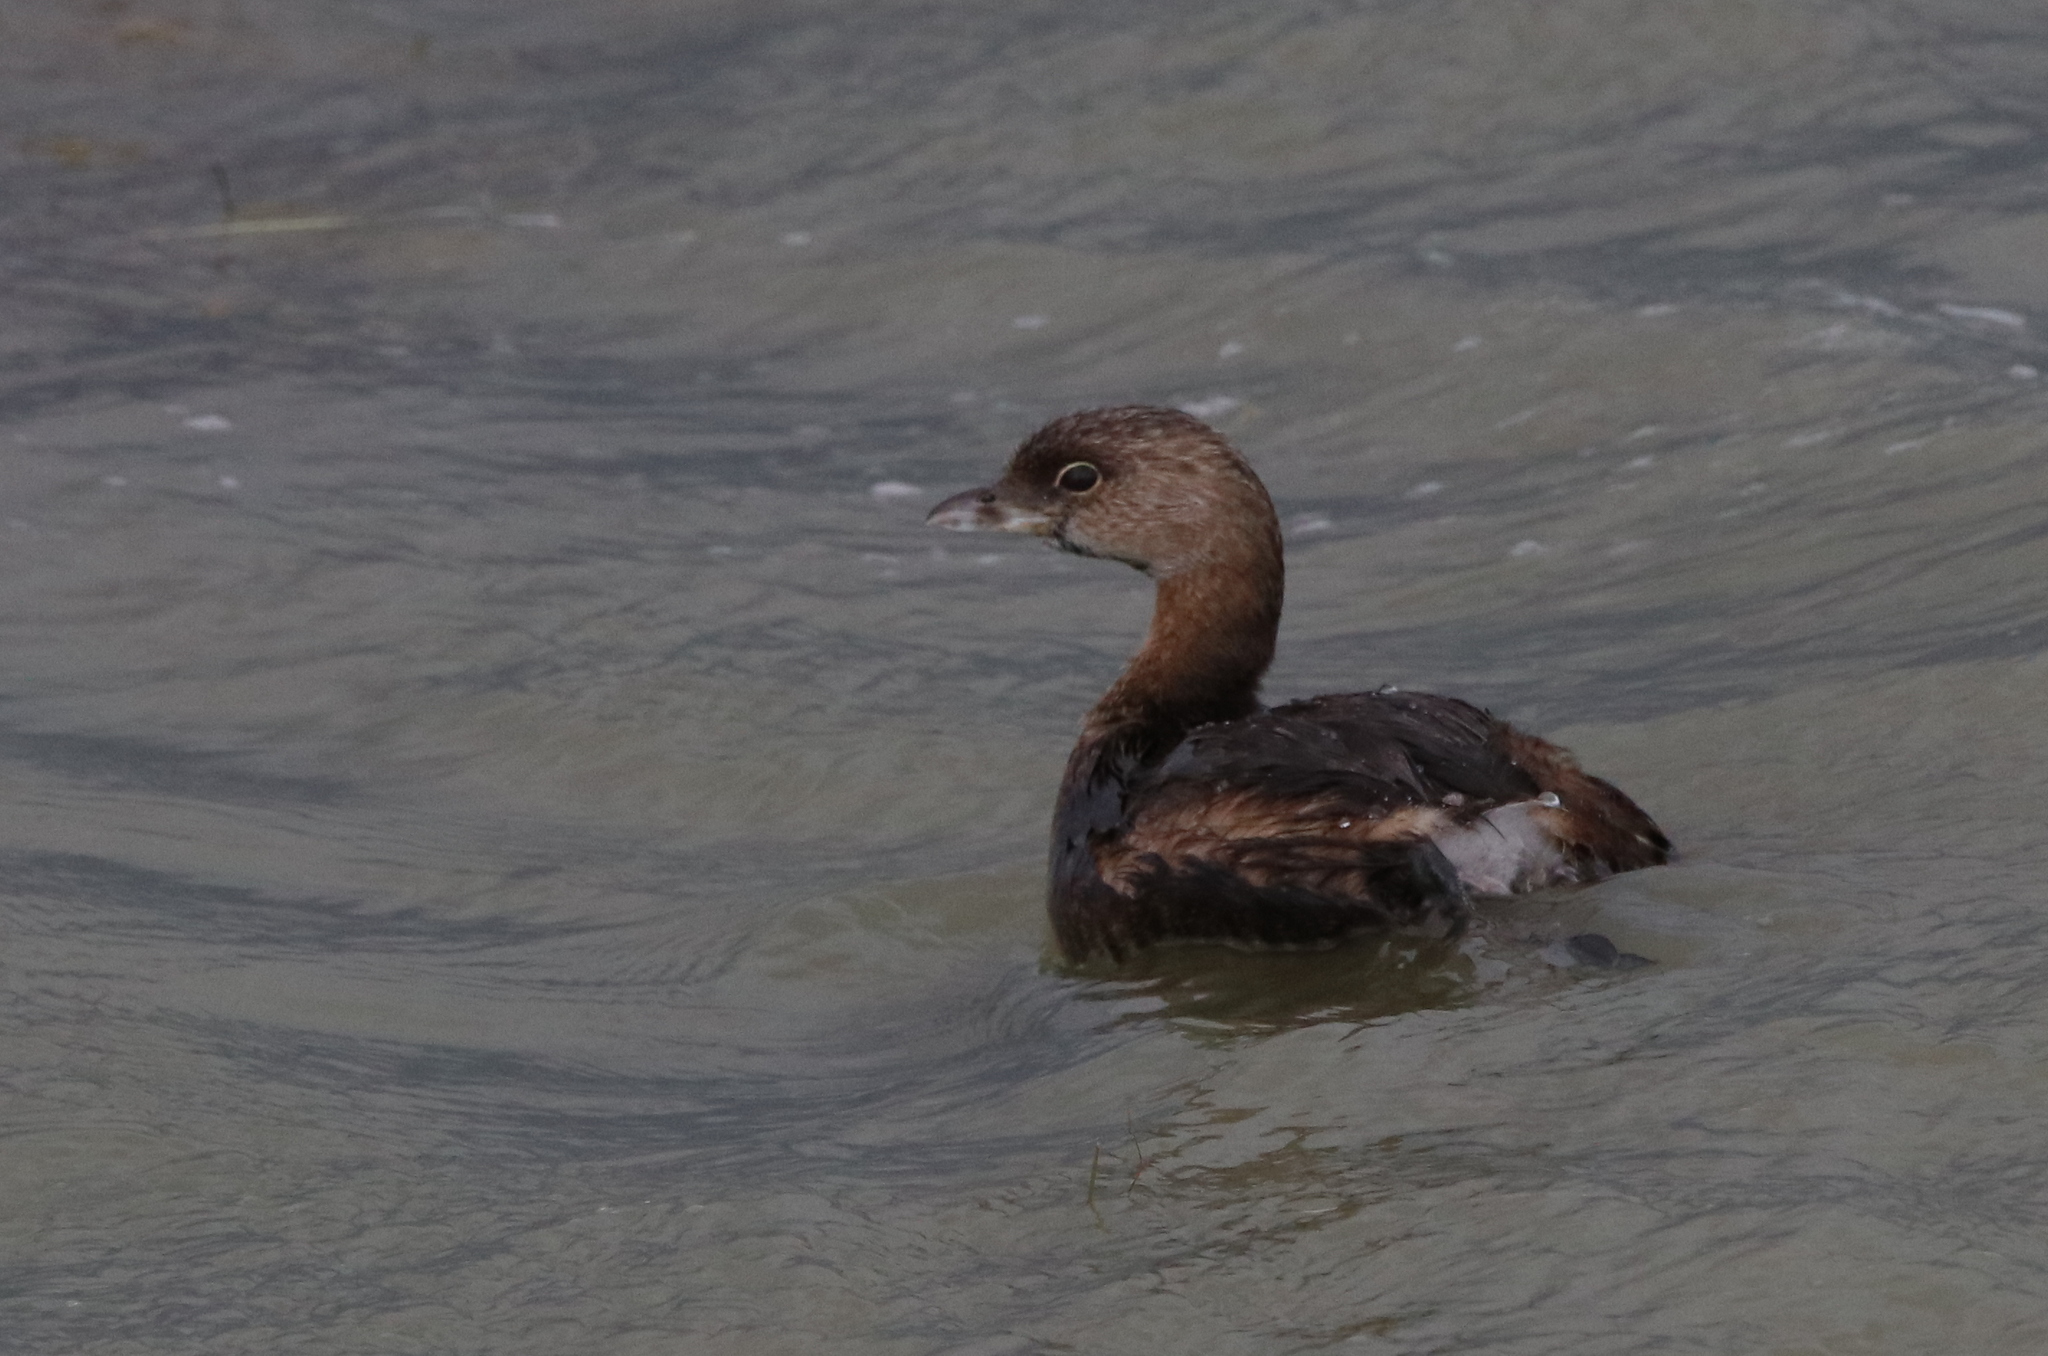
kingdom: Animalia
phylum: Chordata
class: Aves
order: Podicipediformes
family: Podicipedidae
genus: Podilymbus
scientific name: Podilymbus podiceps
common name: Pied-billed grebe
